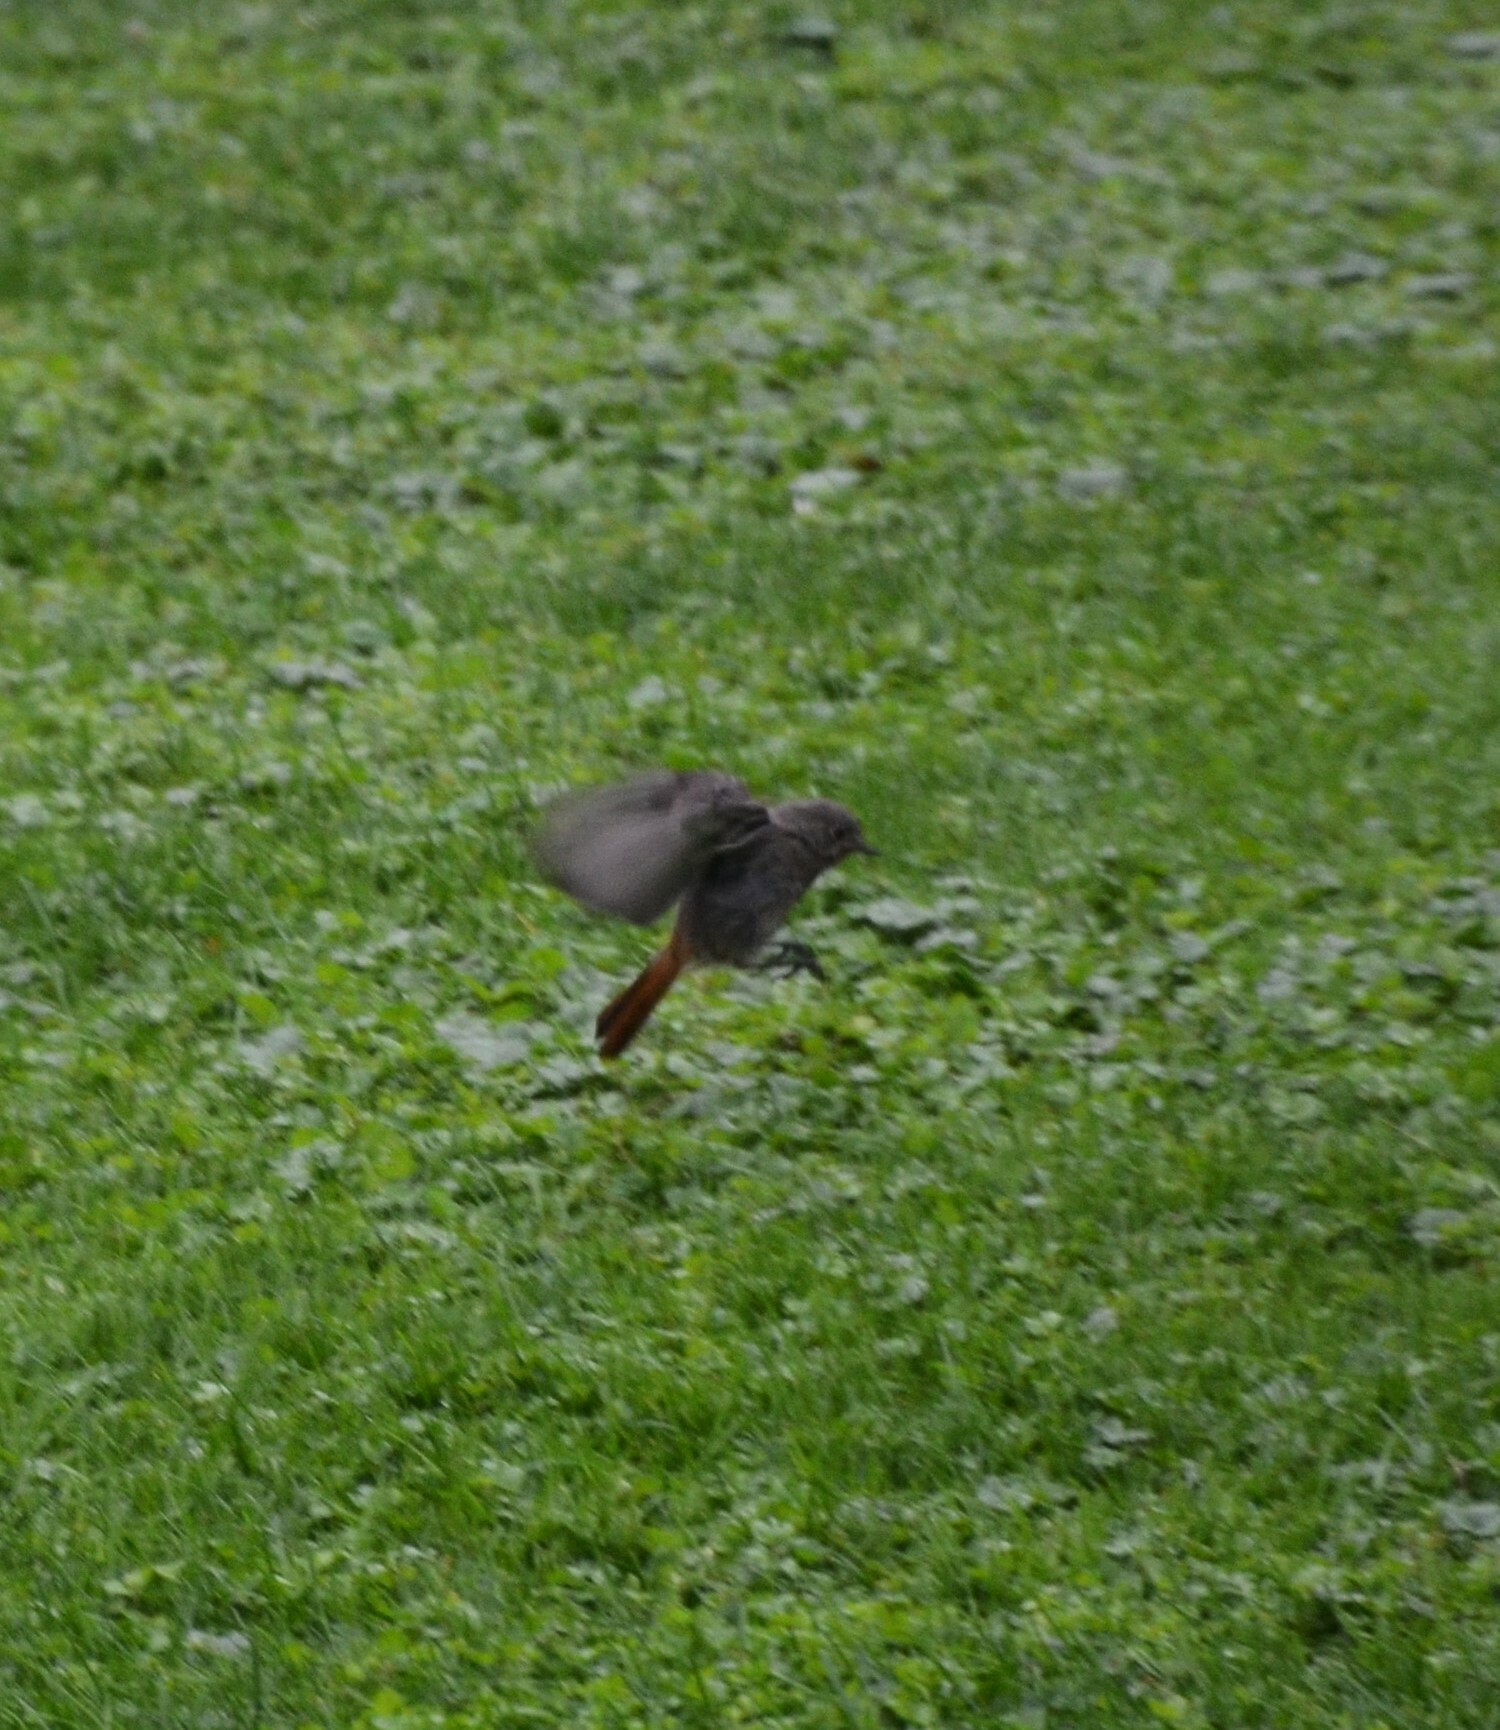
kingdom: Animalia
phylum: Chordata
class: Aves
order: Passeriformes
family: Muscicapidae
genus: Phoenicurus
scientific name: Phoenicurus ochruros
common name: Black redstart
